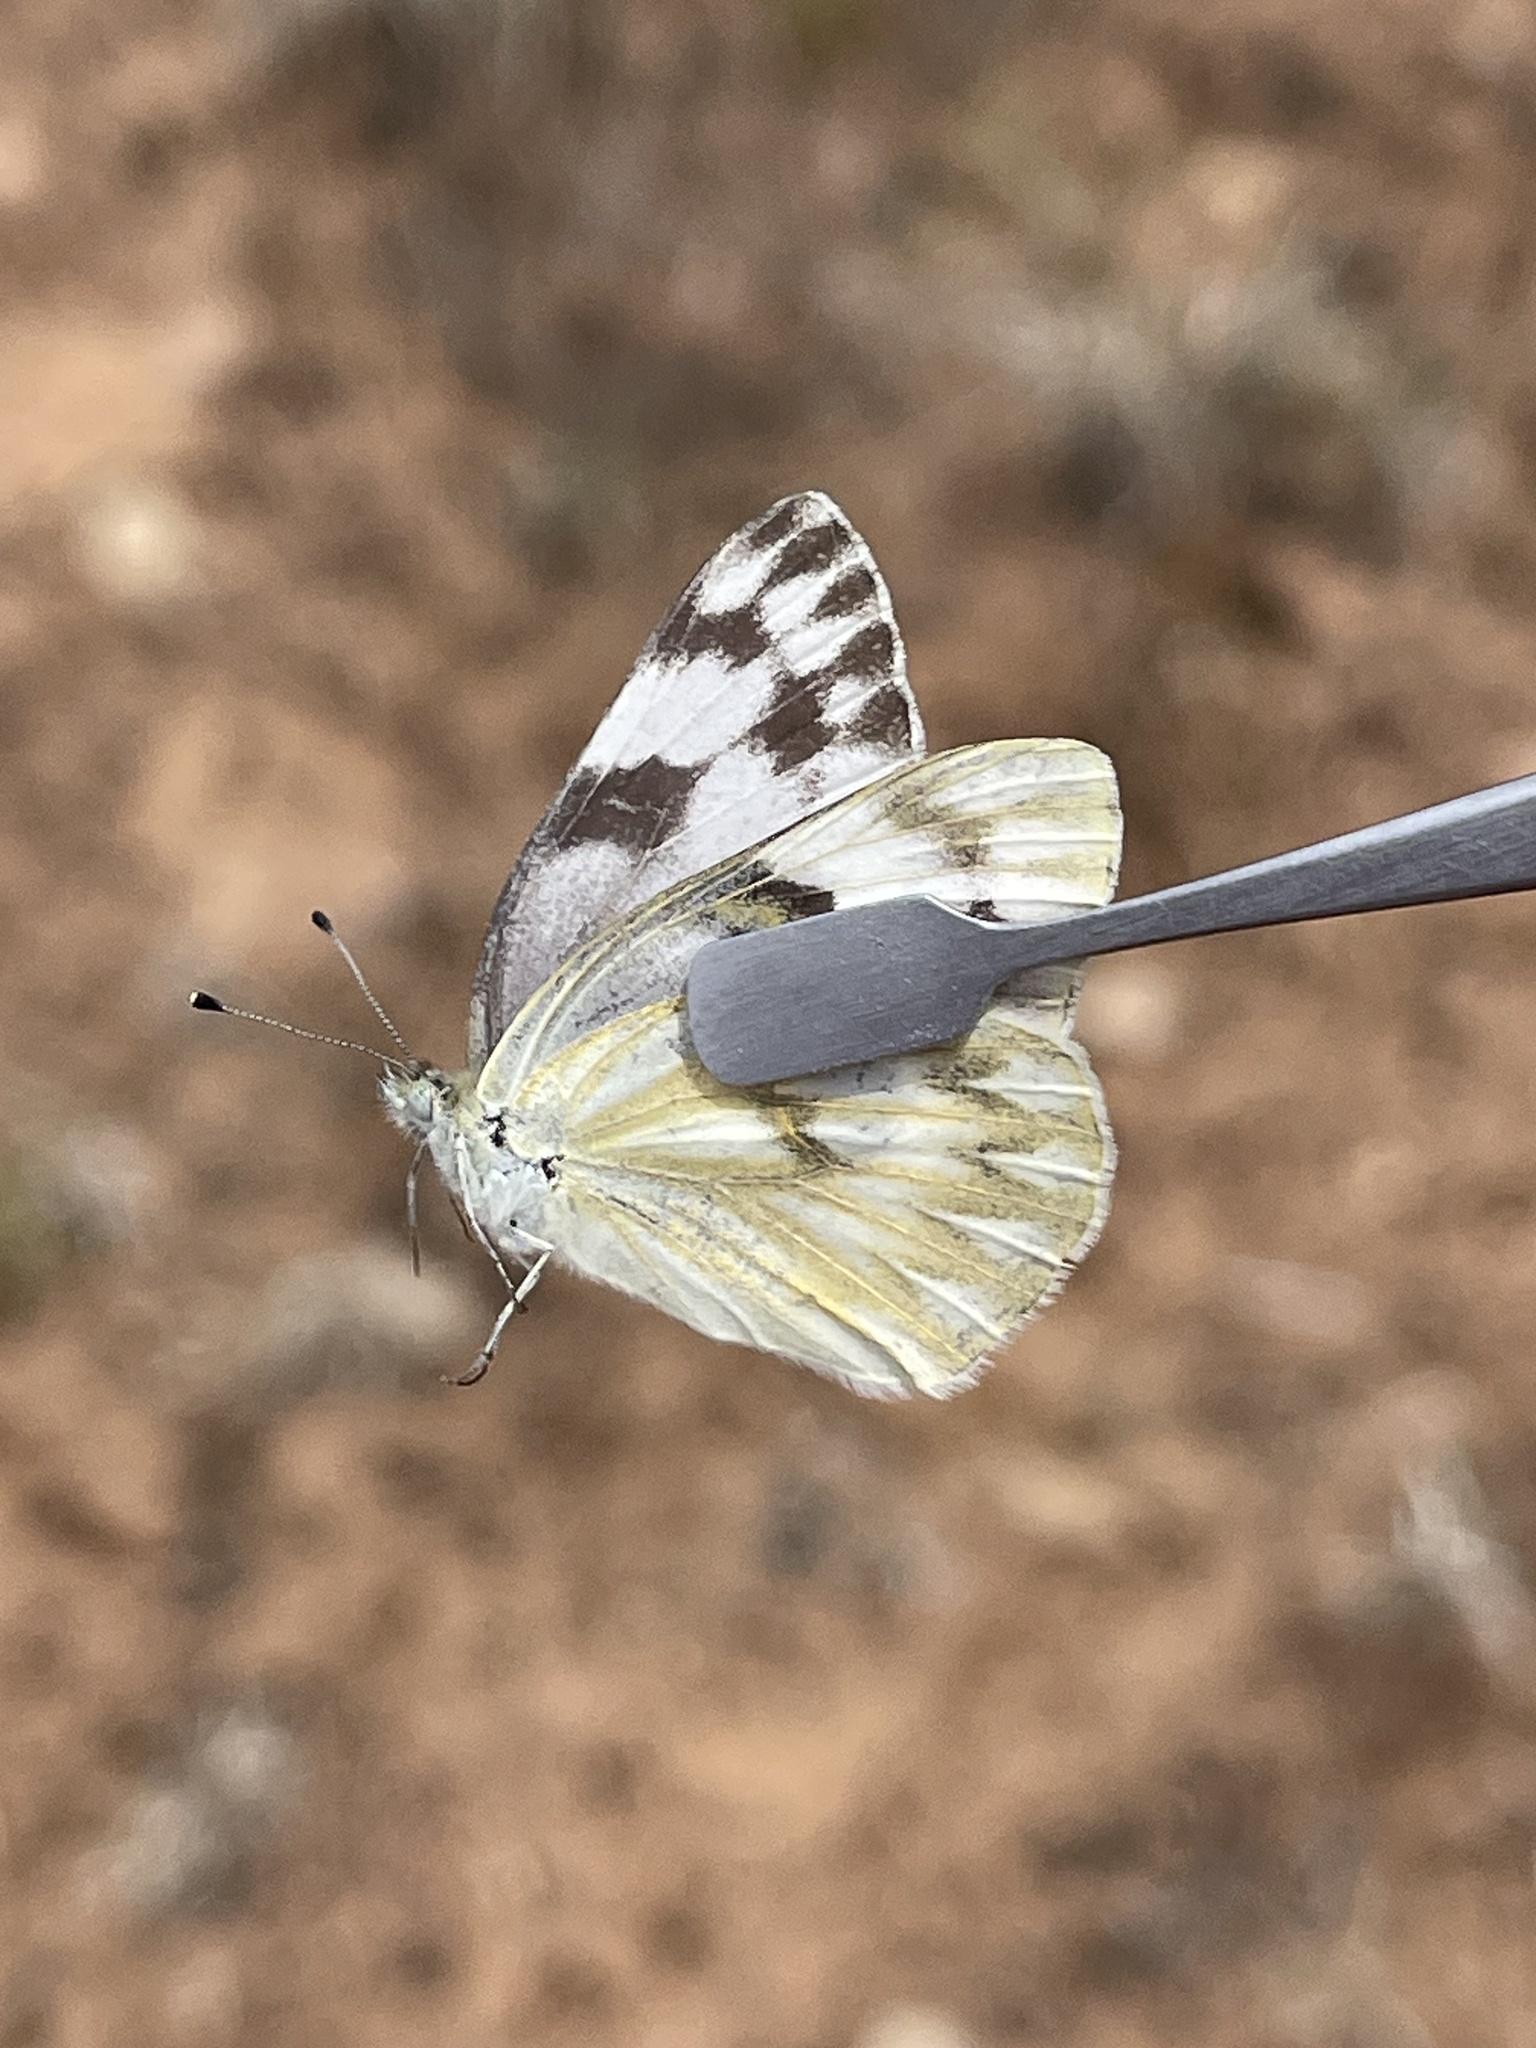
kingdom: Animalia
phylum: Arthropoda
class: Insecta
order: Lepidoptera
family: Pieridae
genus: Pontia
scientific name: Pontia protodice
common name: Checkered white
